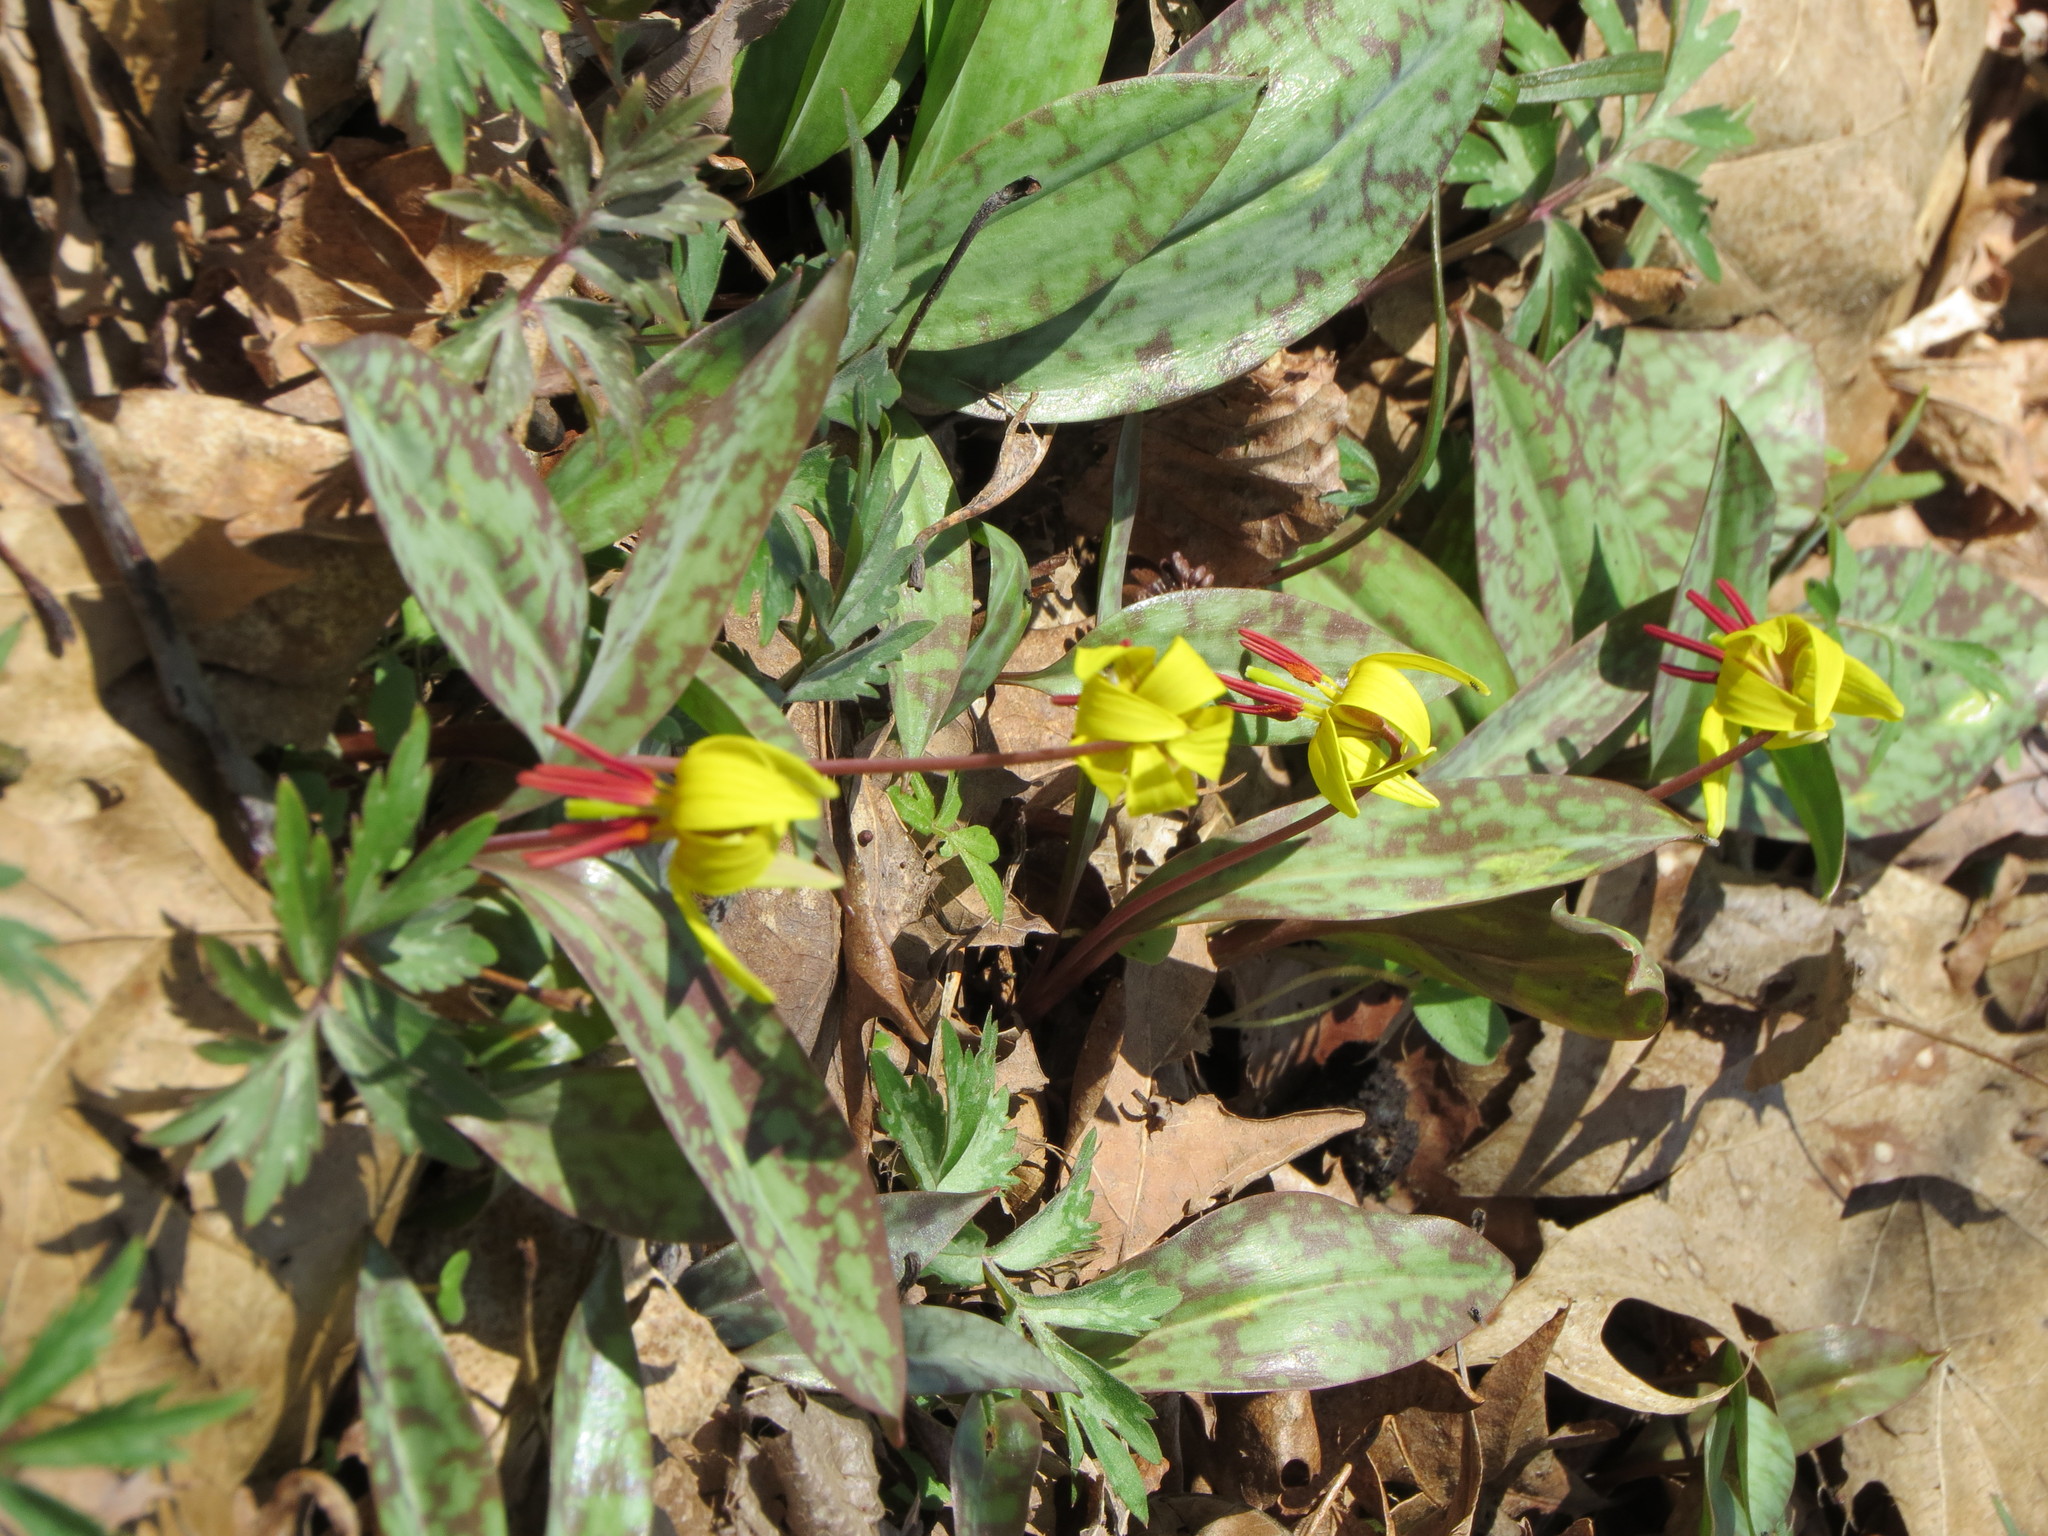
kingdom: Plantae
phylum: Tracheophyta
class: Liliopsida
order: Liliales
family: Liliaceae
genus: Erythronium
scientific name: Erythronium americanum
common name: Yellow adder's-tongue
